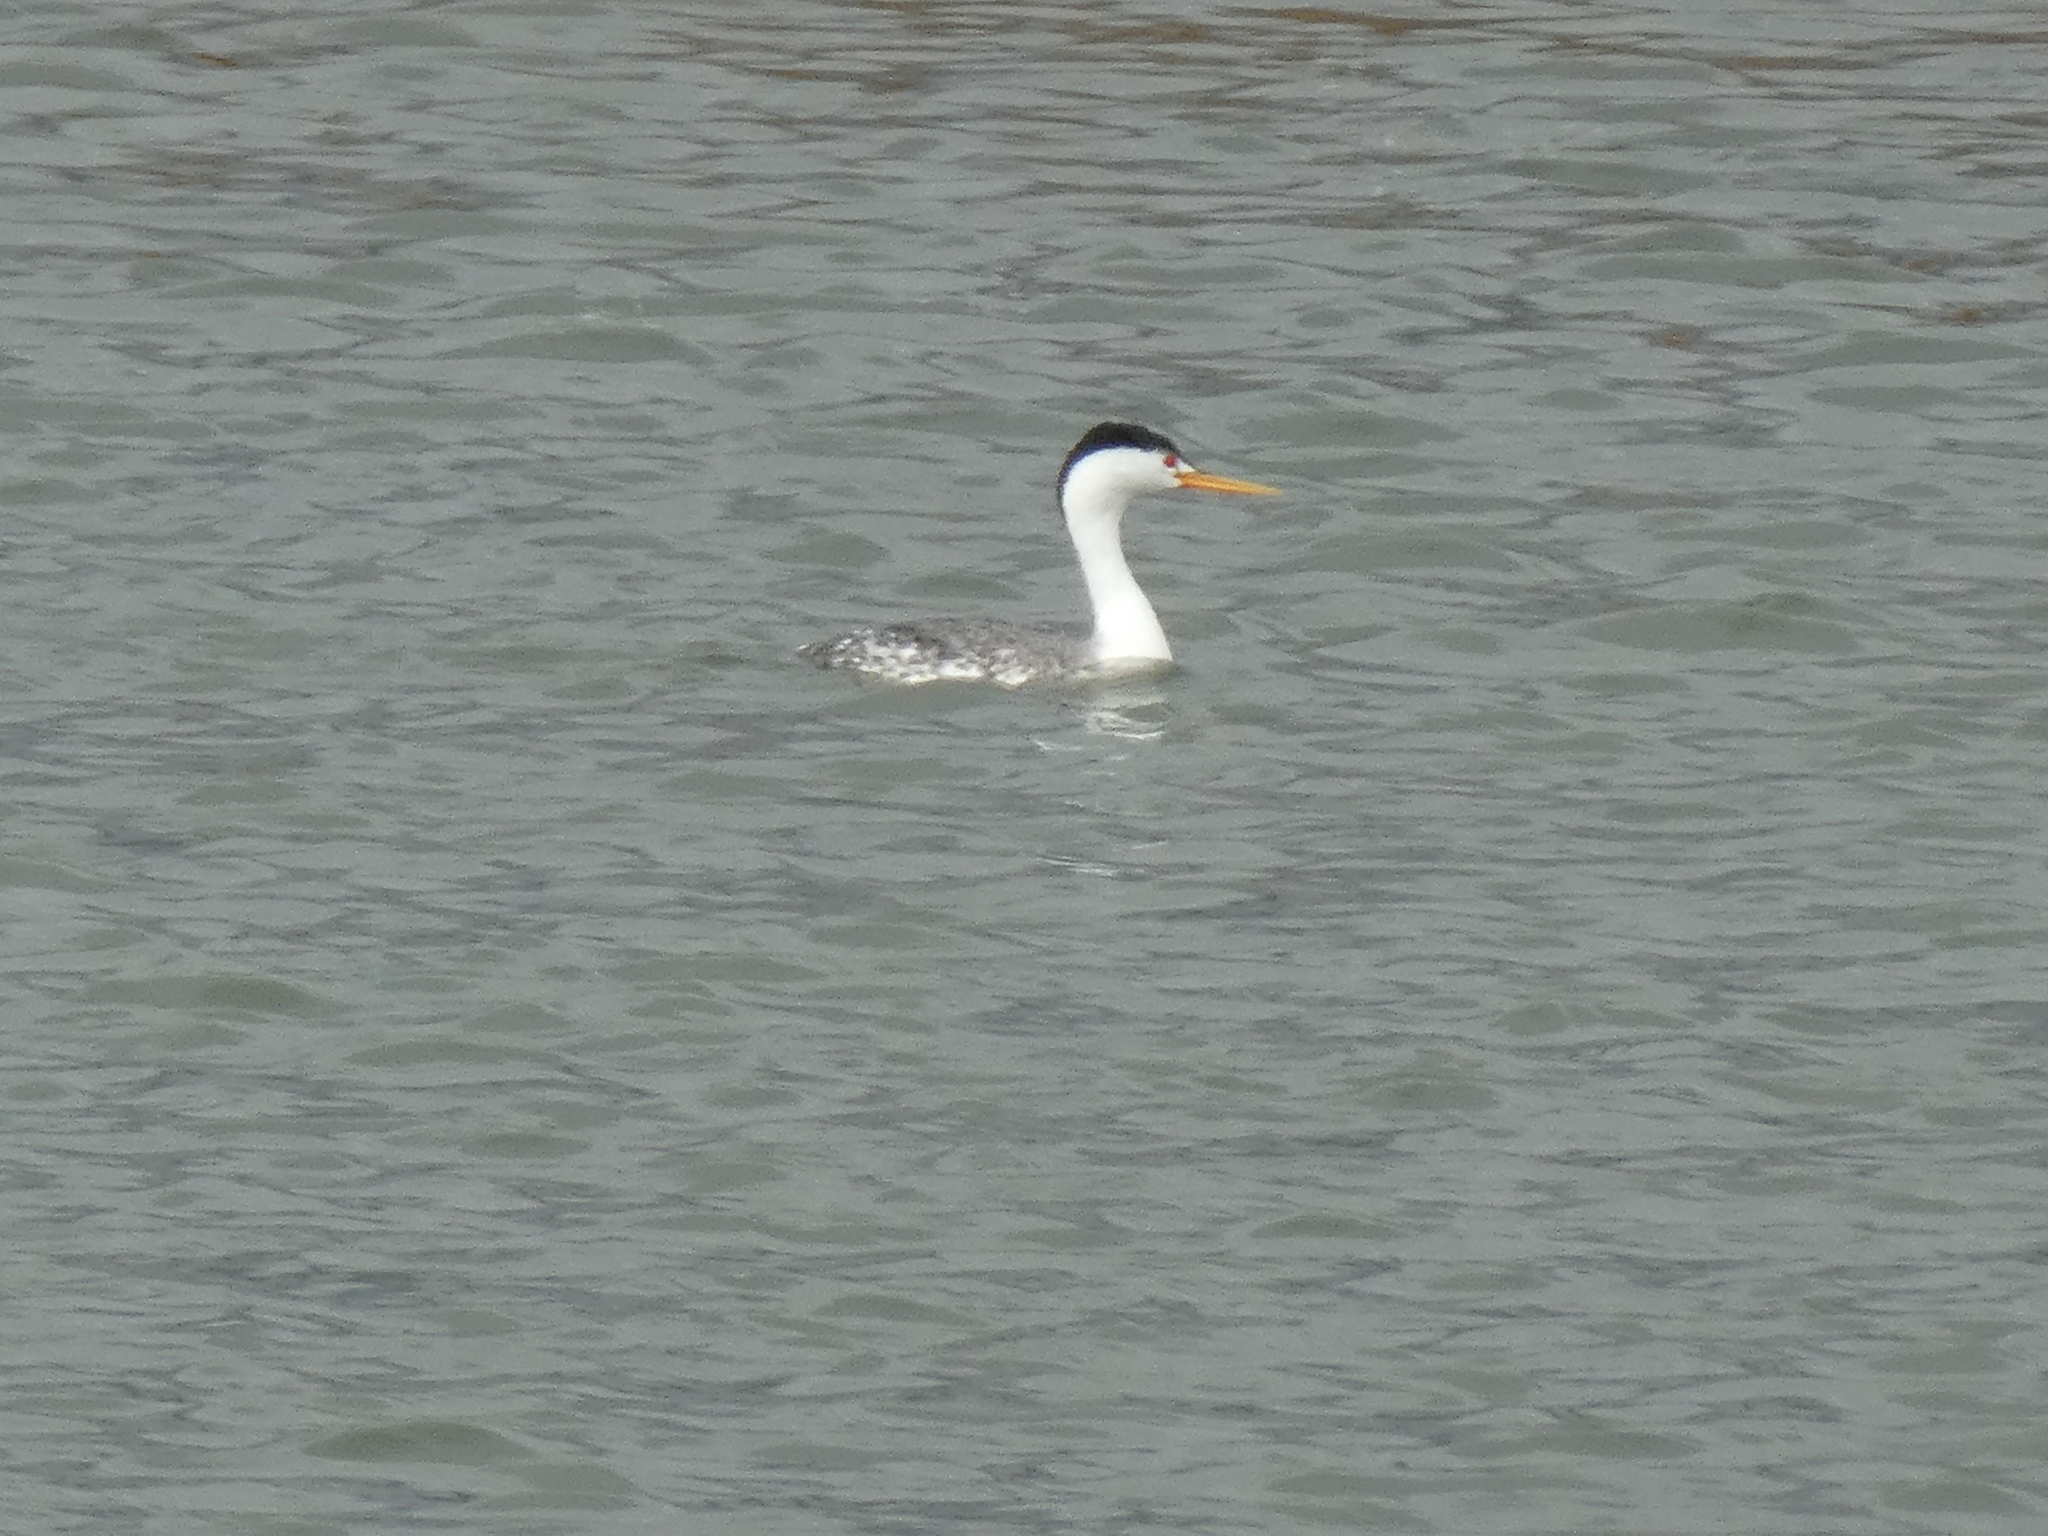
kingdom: Animalia
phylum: Chordata
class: Aves
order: Podicipediformes
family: Podicipedidae
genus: Aechmophorus
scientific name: Aechmophorus clarkii
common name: Clark's grebe
